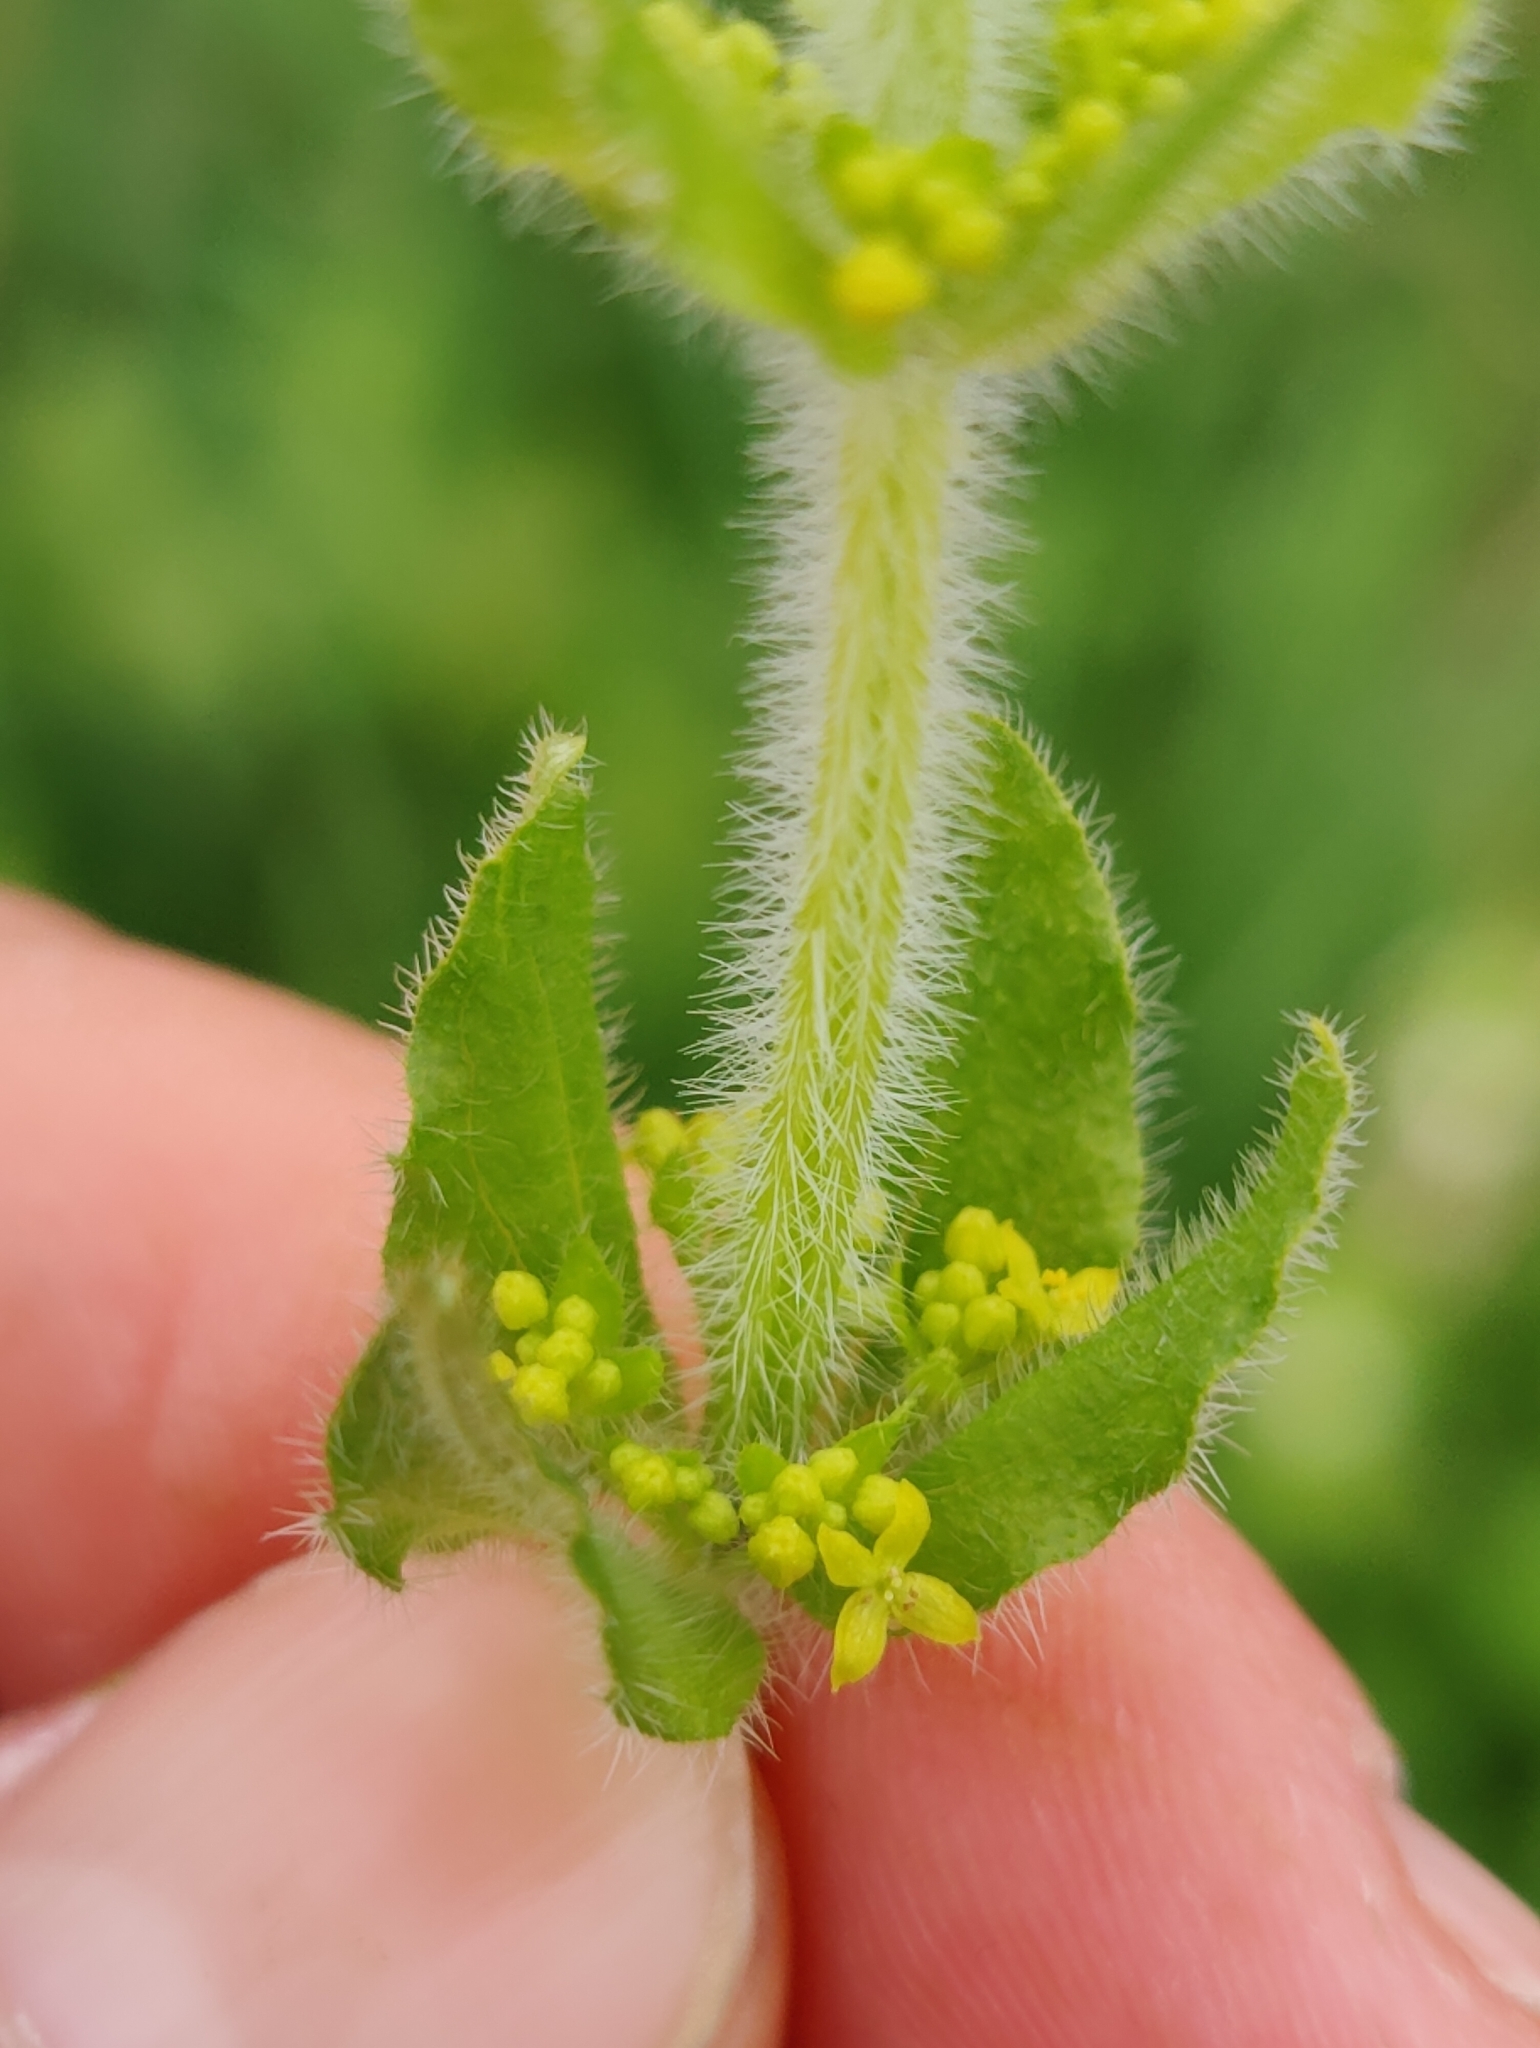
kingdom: Plantae
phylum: Tracheophyta
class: Magnoliopsida
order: Gentianales
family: Rubiaceae
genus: Cruciata
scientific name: Cruciata laevipes
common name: Crosswort
